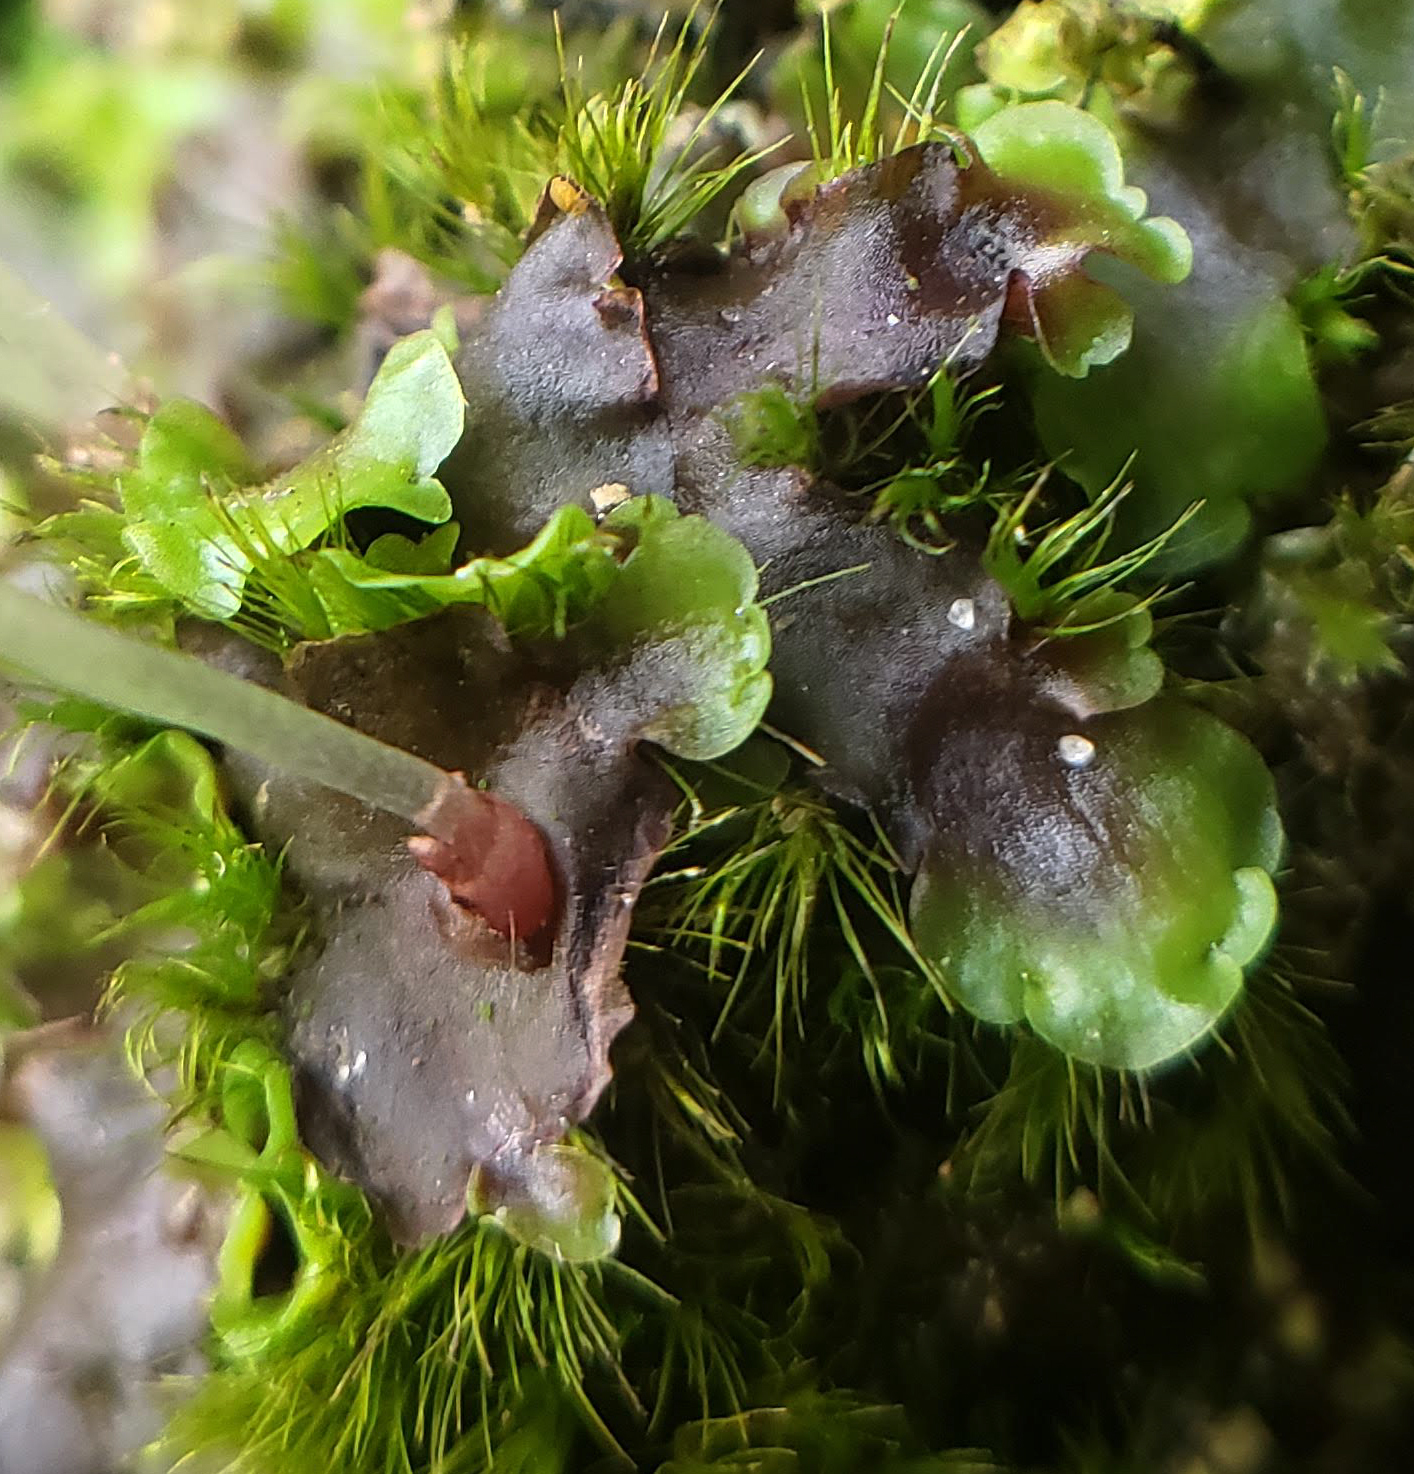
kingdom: Plantae
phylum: Marchantiophyta
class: Jungermanniopsida
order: Pelliales
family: Pelliaceae
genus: Pellia
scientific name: Pellia epiphylla
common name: Common pellia
